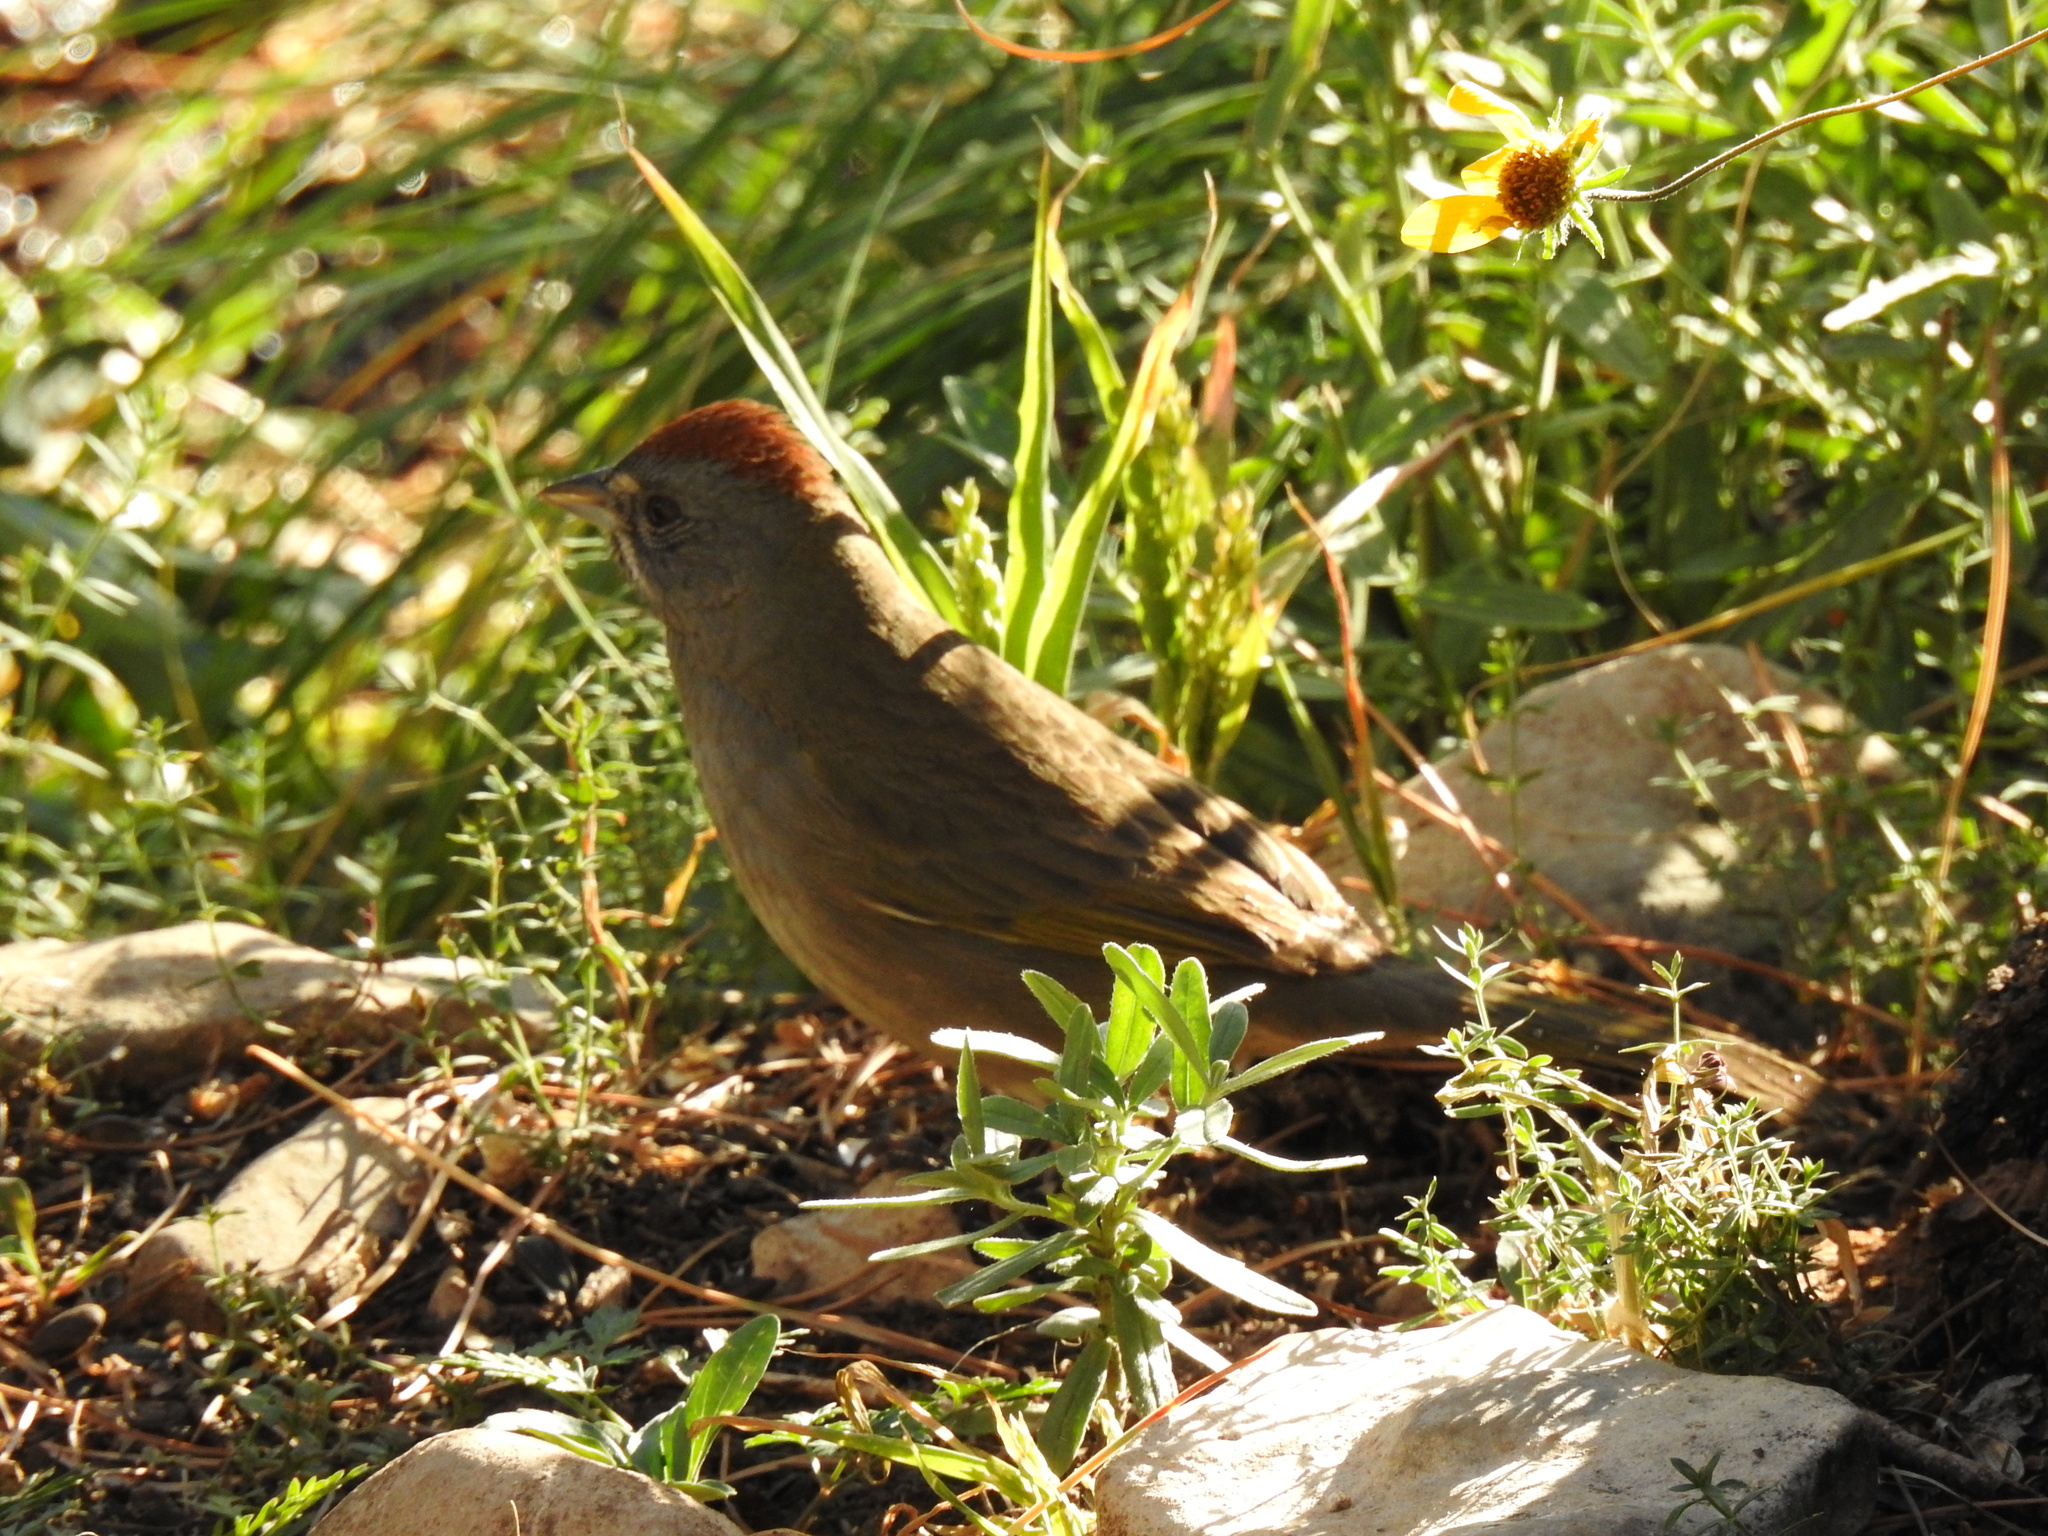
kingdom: Animalia
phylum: Chordata
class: Aves
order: Passeriformes
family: Passerellidae
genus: Pipilo
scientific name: Pipilo chlorurus
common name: Green-tailed towhee
